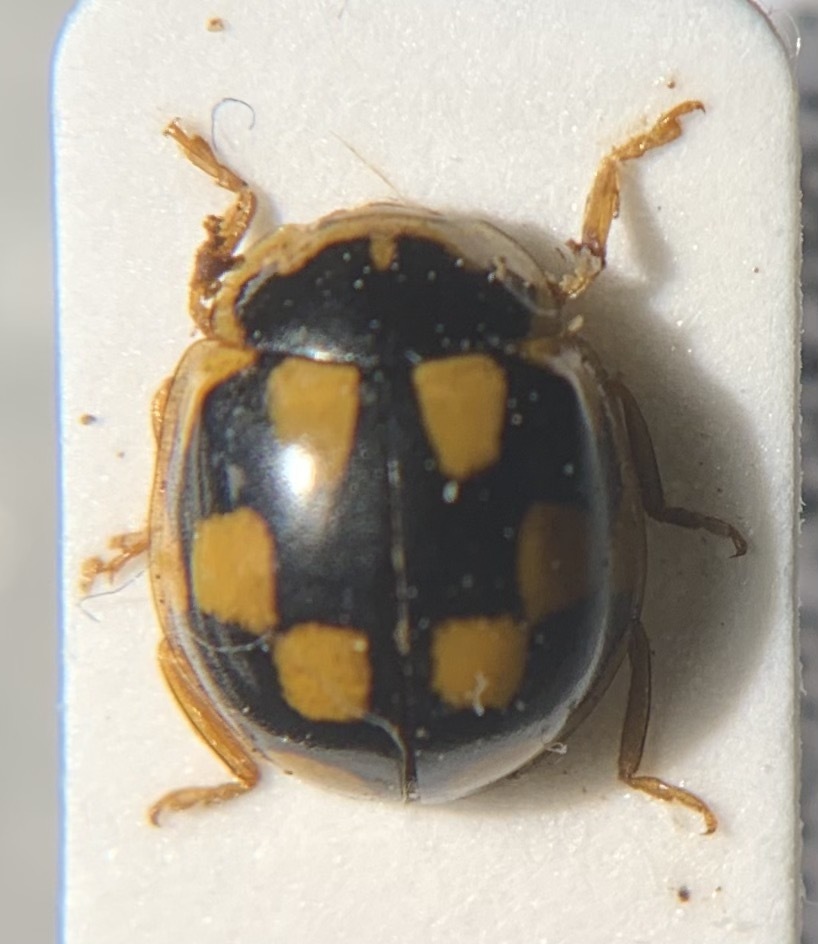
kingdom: Animalia
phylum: Arthropoda
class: Insecta
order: Coleoptera
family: Coccinellidae
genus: Propylaea
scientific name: Propylaea quatuordecimpunctata
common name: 14-spotted ladybird beetle
